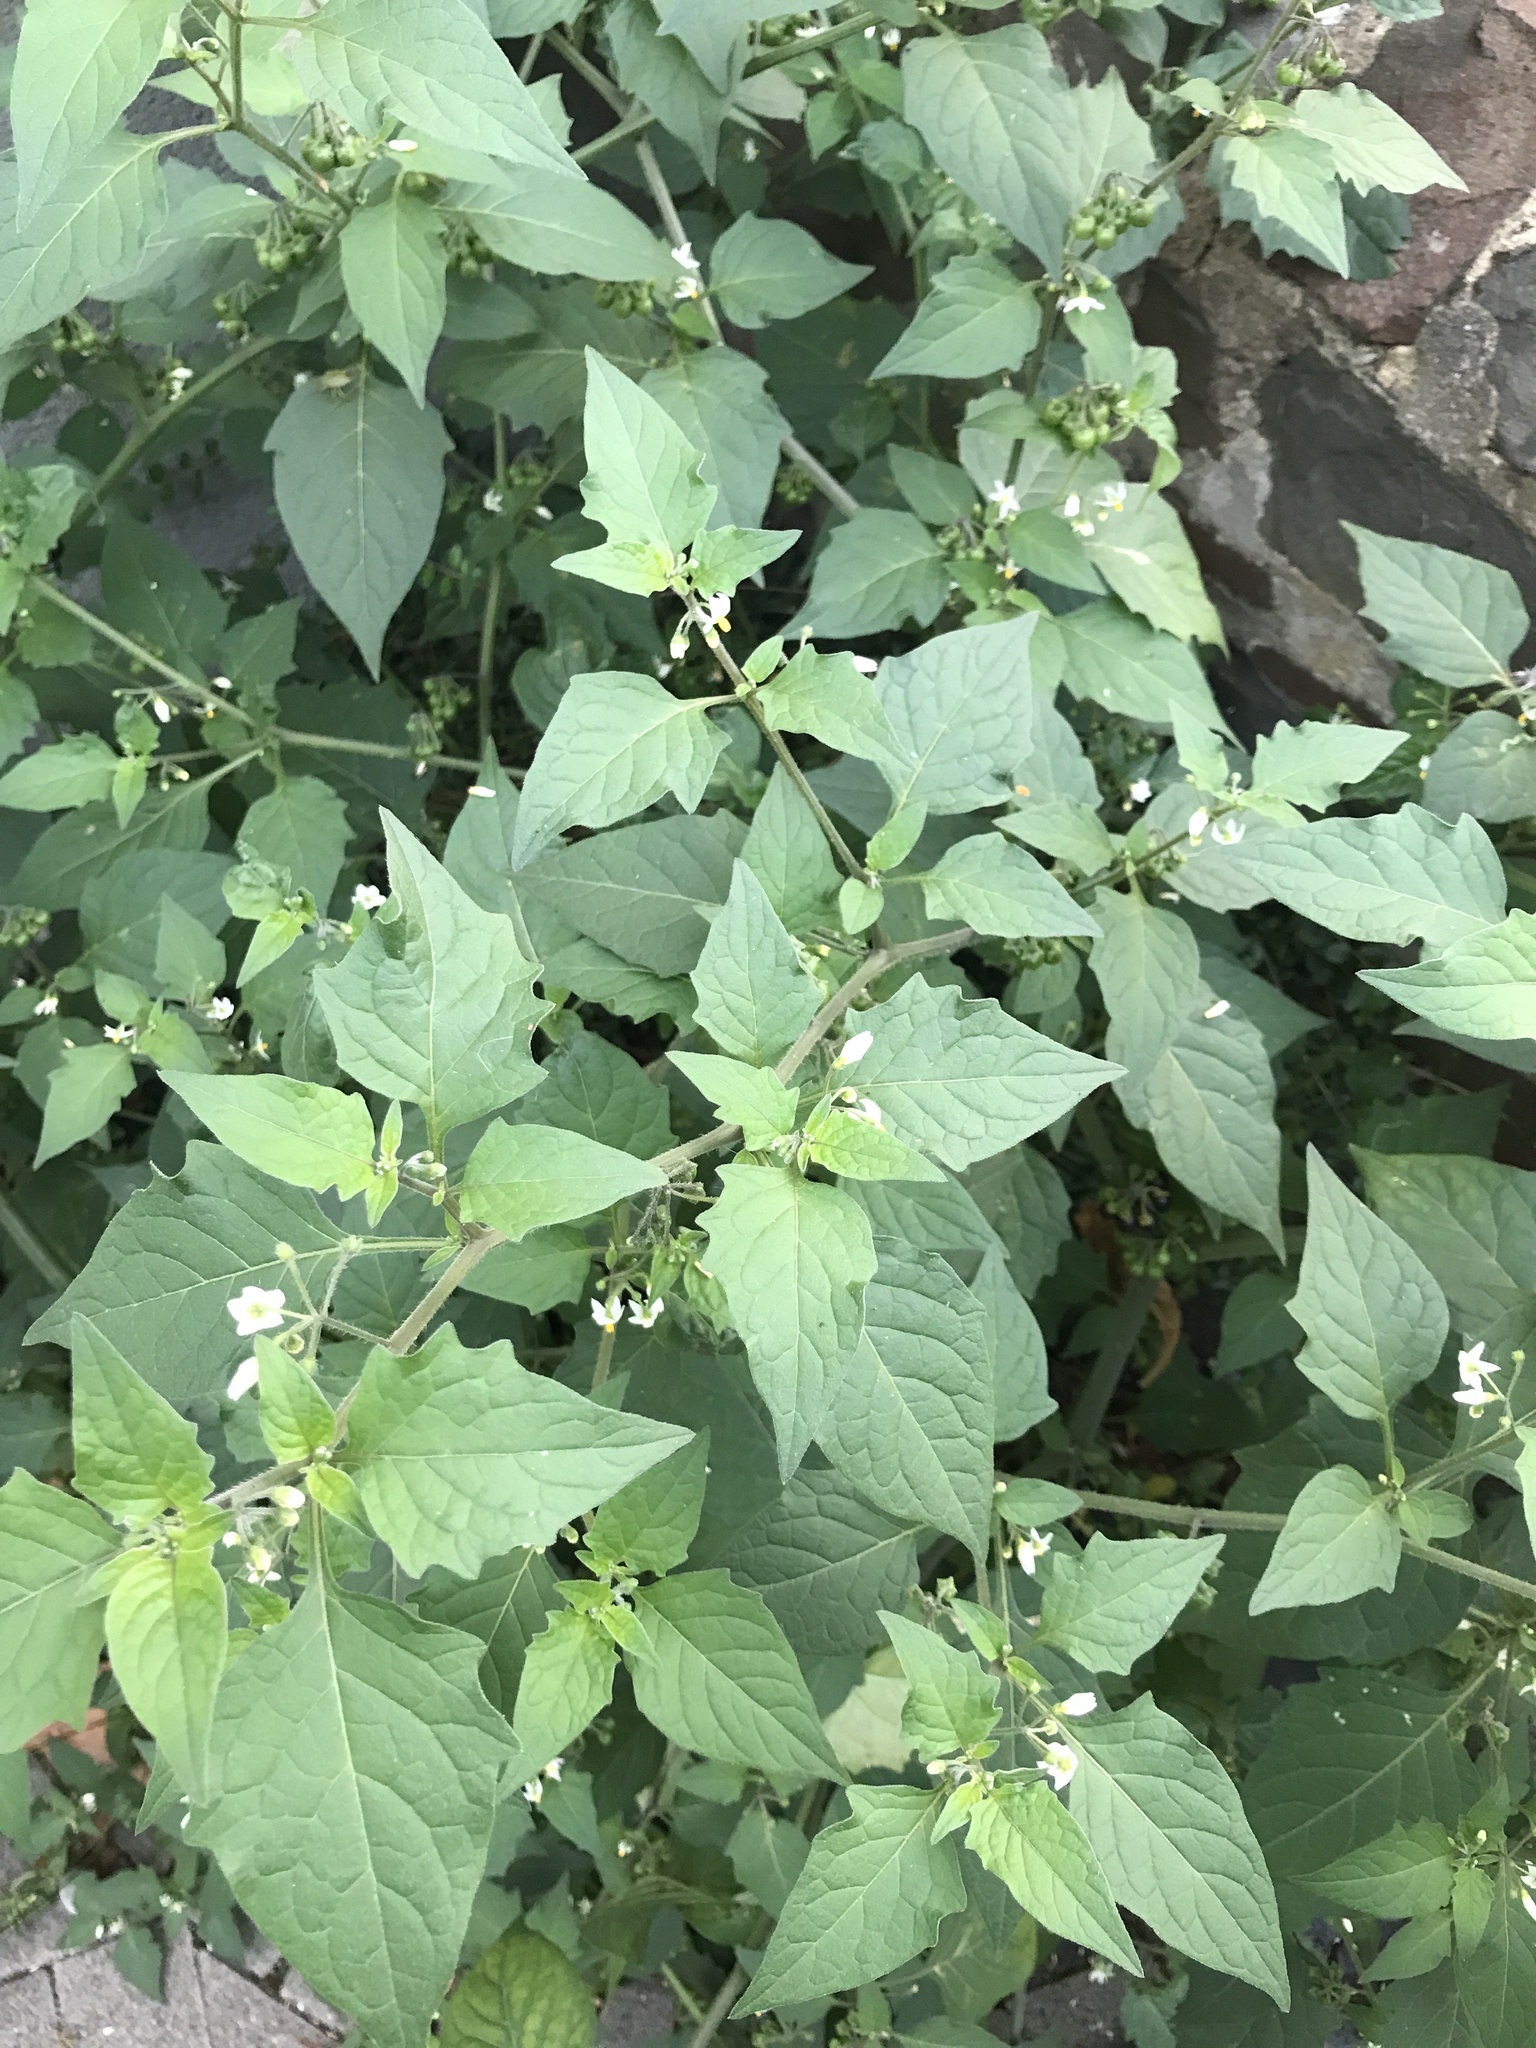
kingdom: Plantae
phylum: Tracheophyta
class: Magnoliopsida
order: Solanales
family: Solanaceae
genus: Solanum
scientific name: Solanum nigrum
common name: Black nightshade
